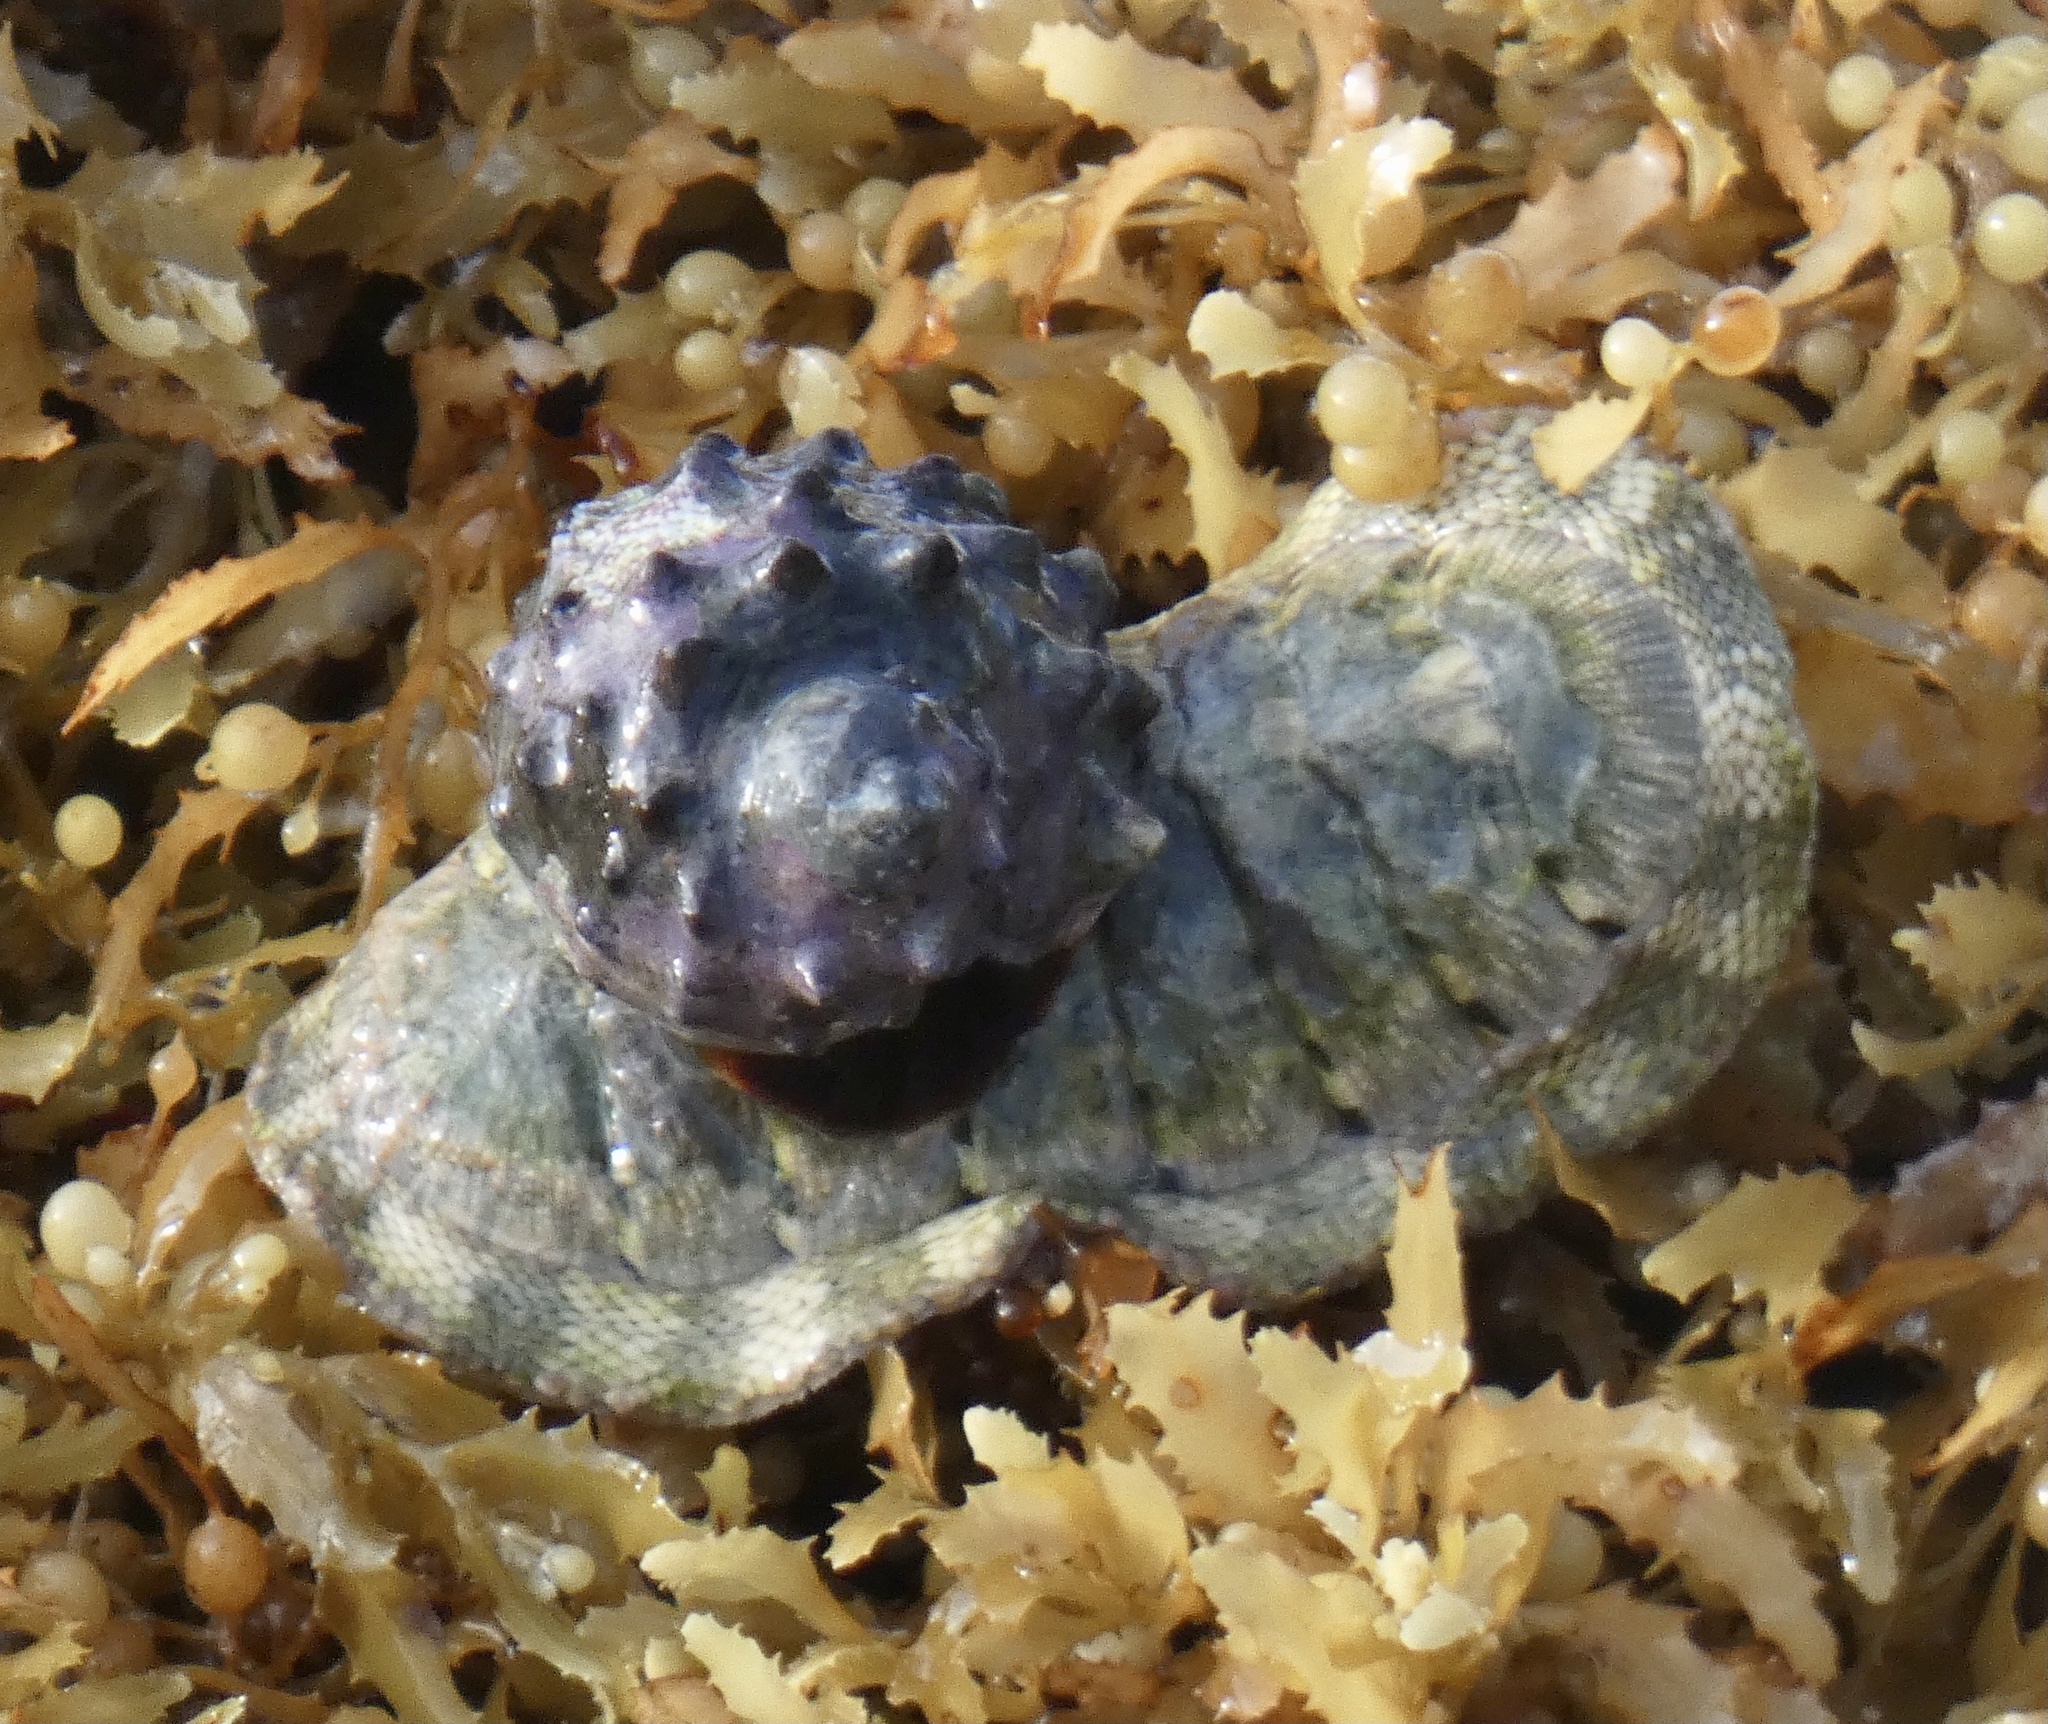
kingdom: Animalia
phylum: Mollusca
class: Polyplacophora
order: Chitonida
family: Chitonidae
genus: Chiton
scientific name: Chiton squamosus
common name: Squamose chiton
